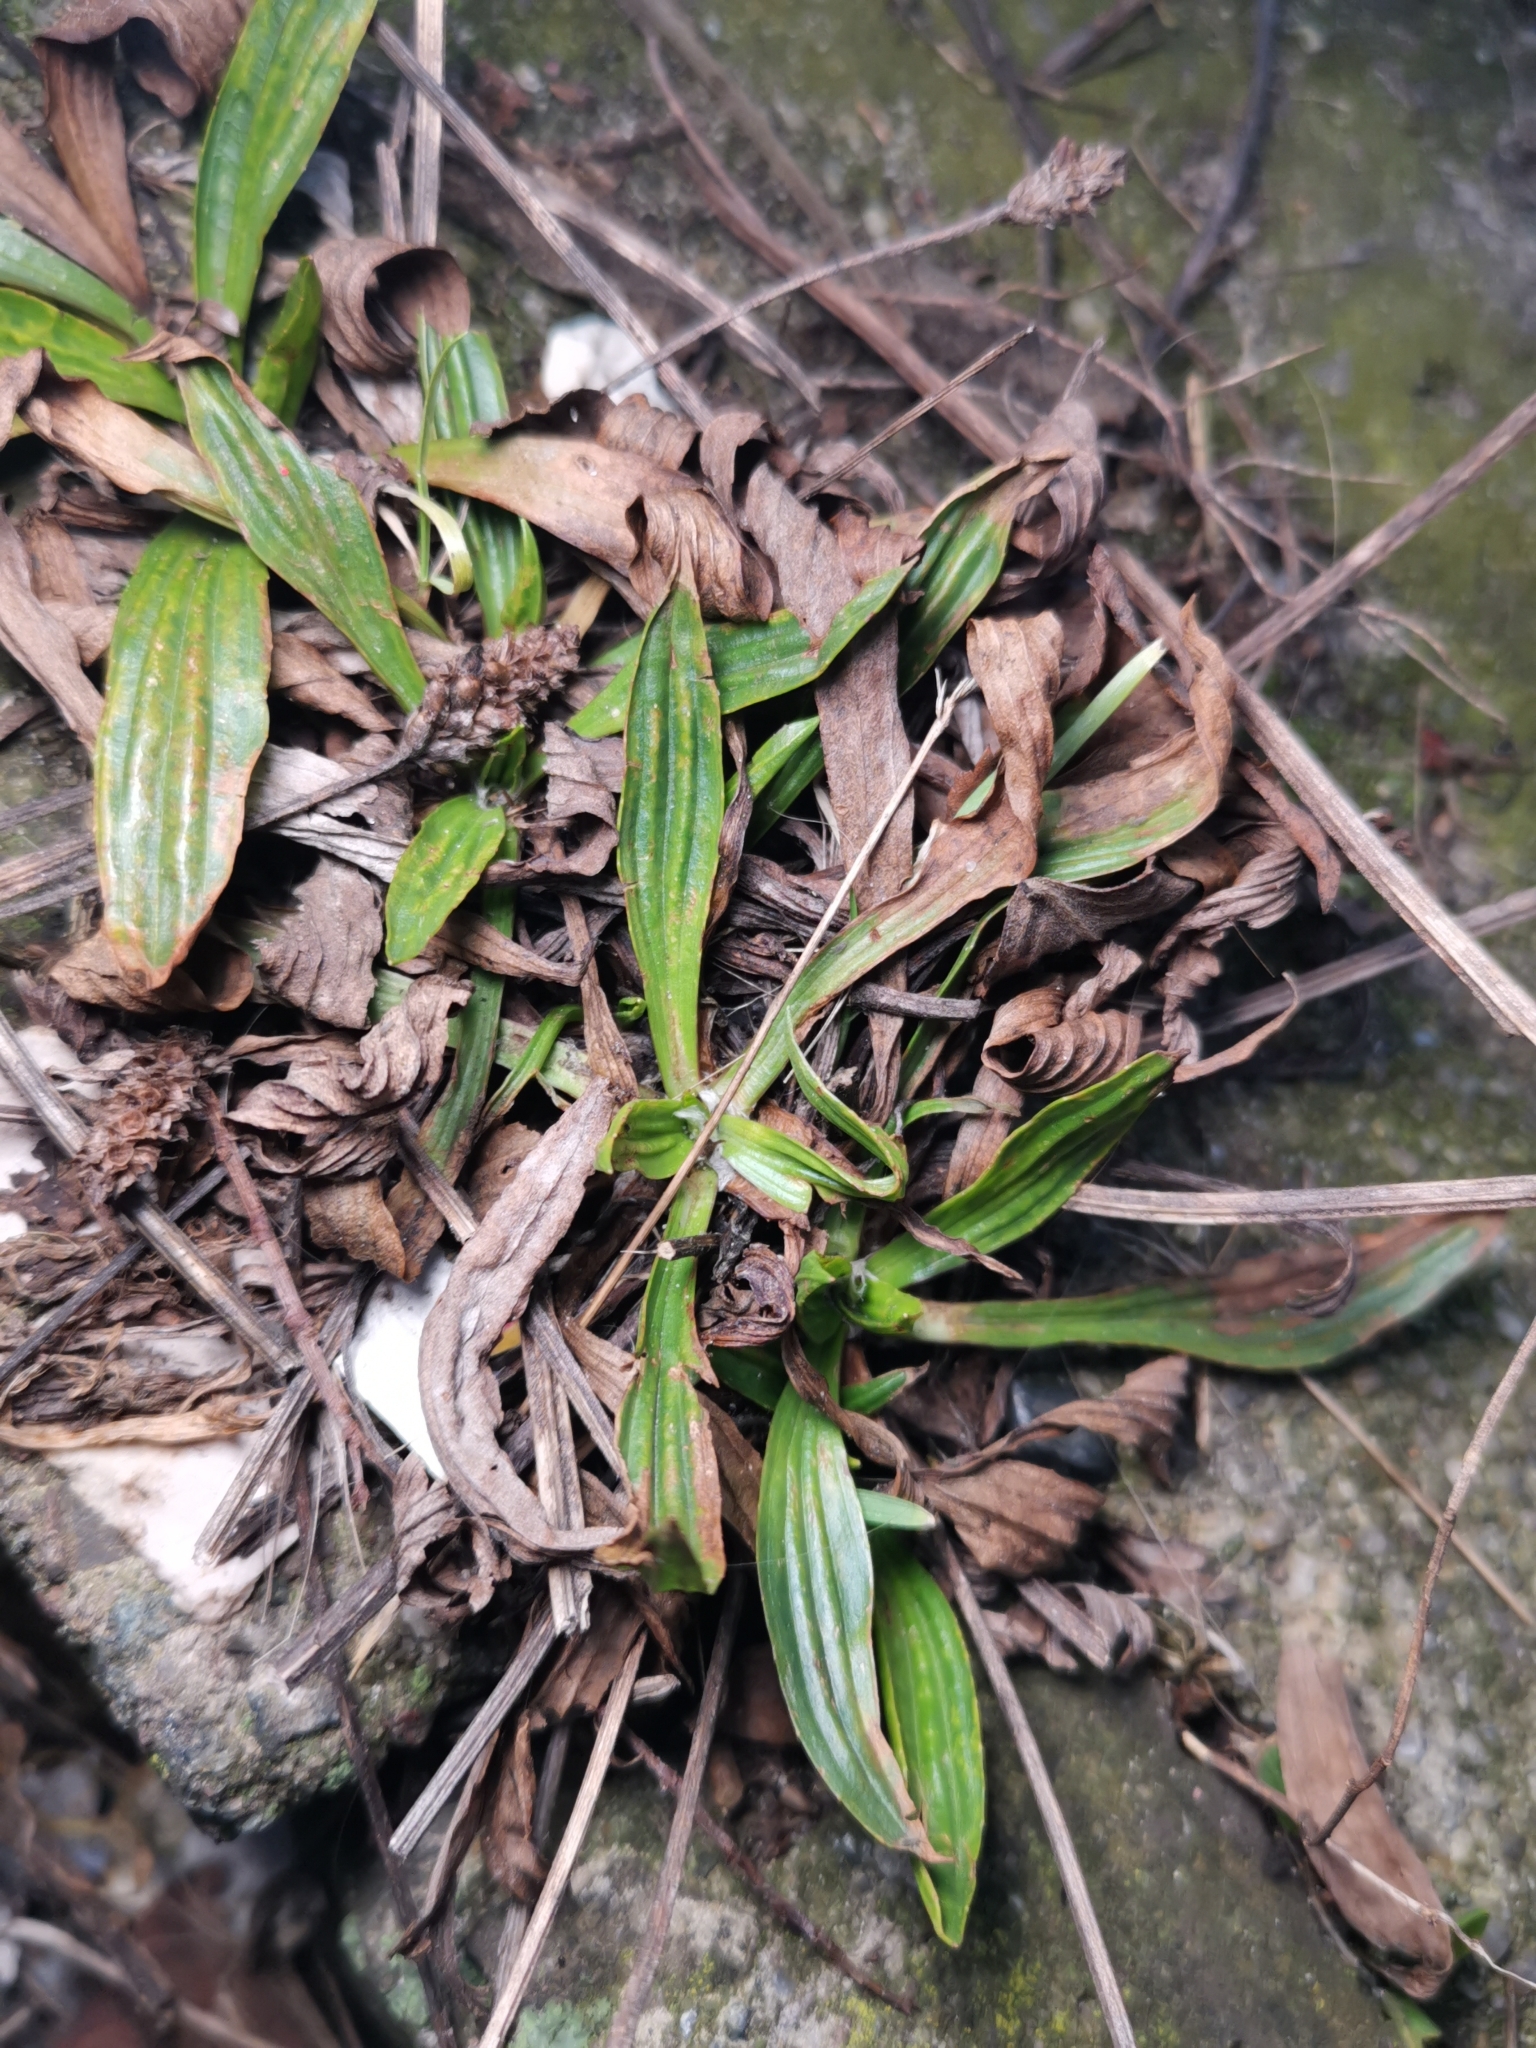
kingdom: Plantae
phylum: Tracheophyta
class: Magnoliopsida
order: Lamiales
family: Plantaginaceae
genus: Plantago
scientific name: Plantago lanceolata
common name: Ribwort plantain
